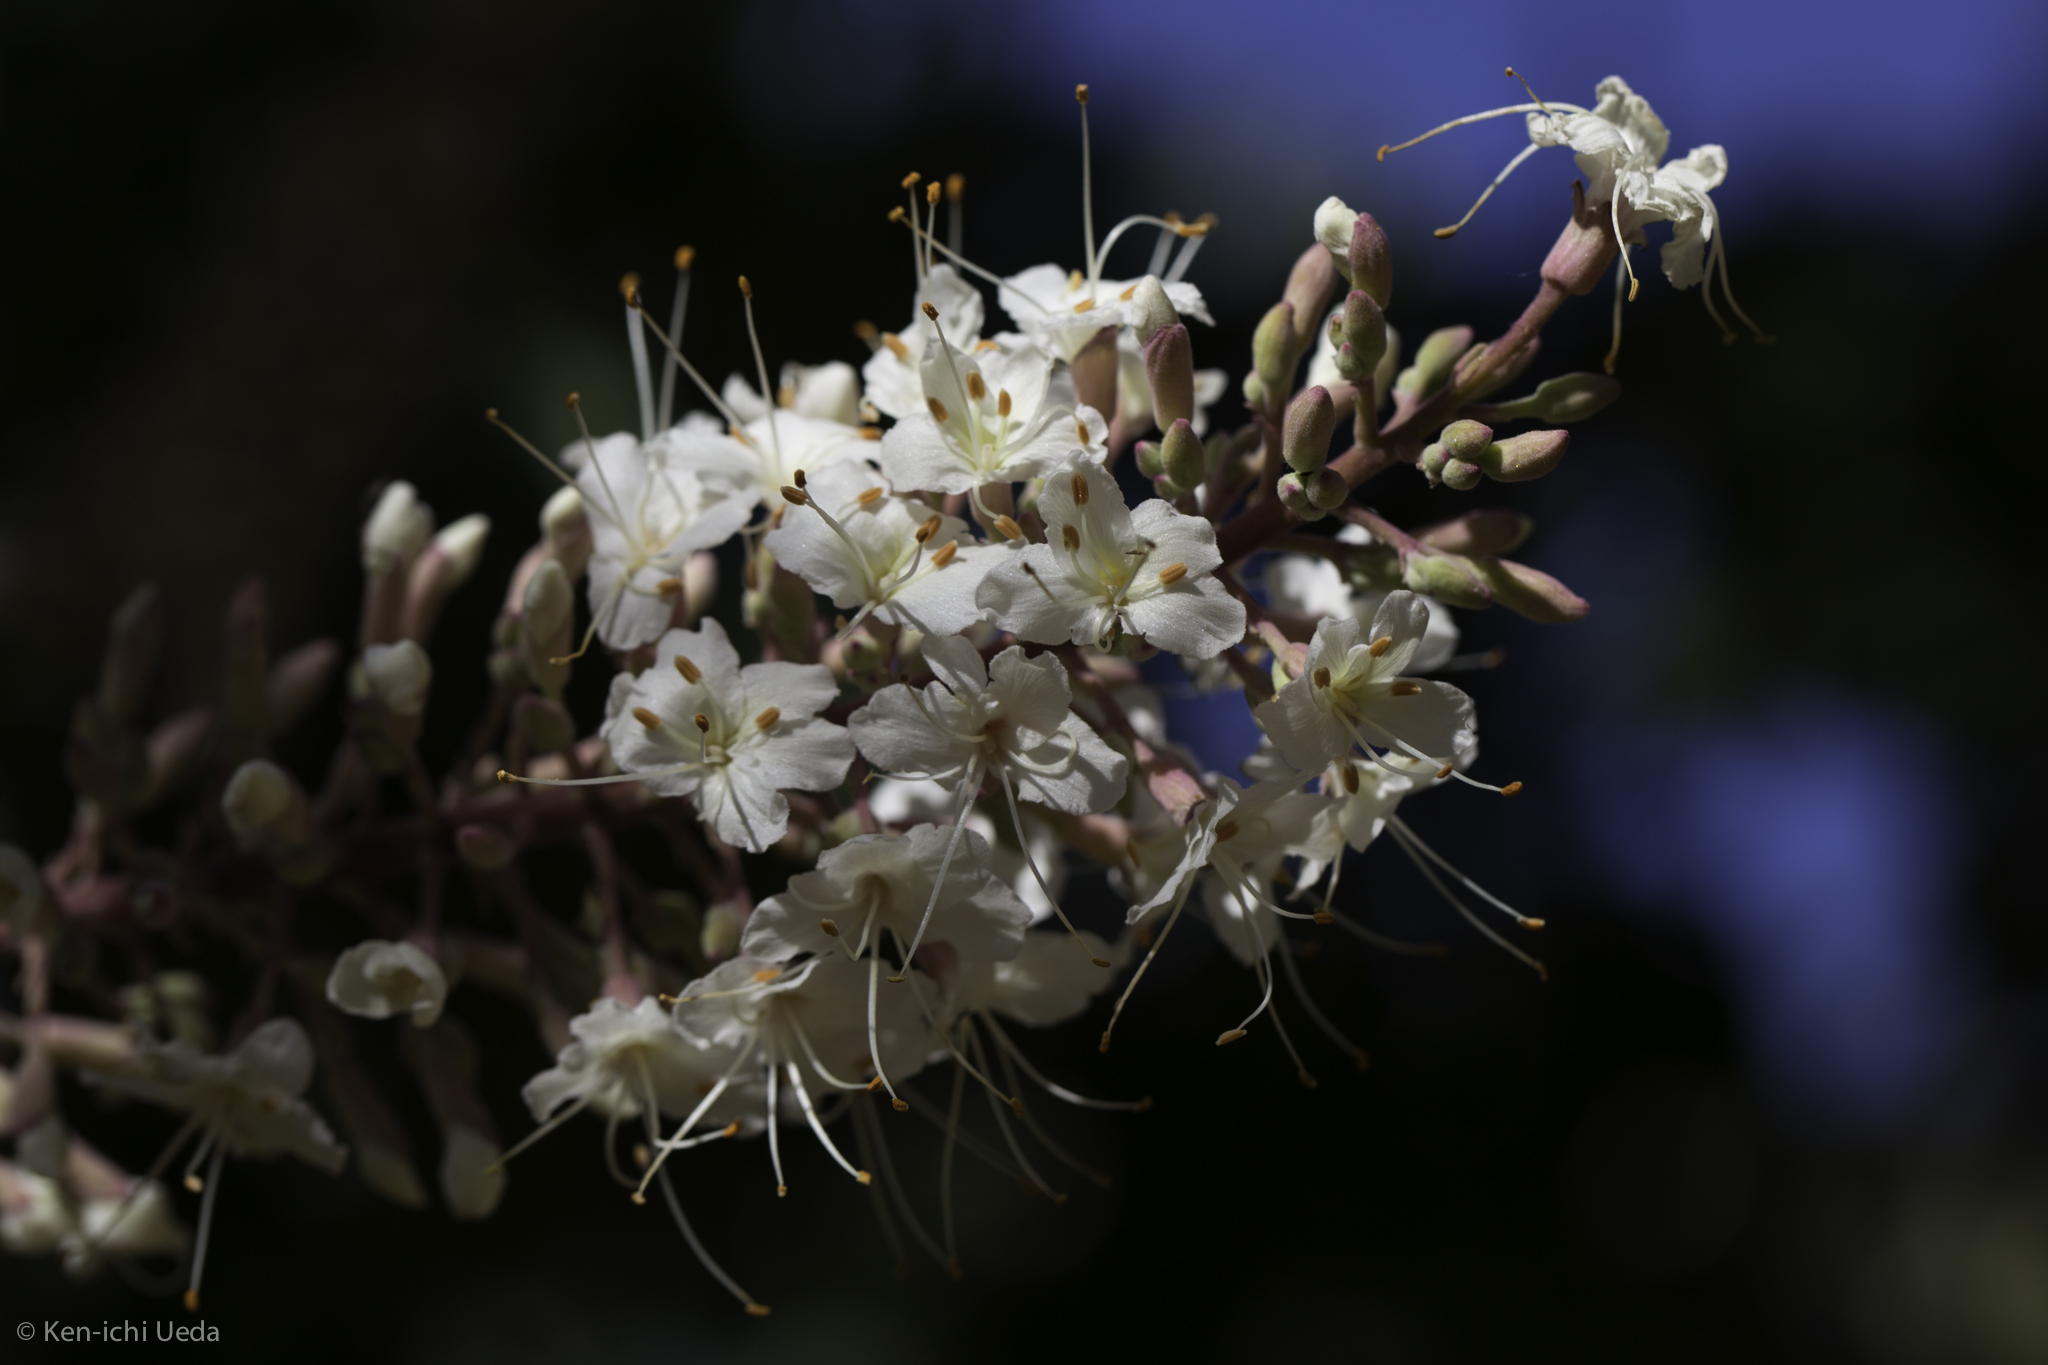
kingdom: Plantae
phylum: Tracheophyta
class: Magnoliopsida
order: Sapindales
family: Sapindaceae
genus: Aesculus
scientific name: Aesculus californica
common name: California buckeye
